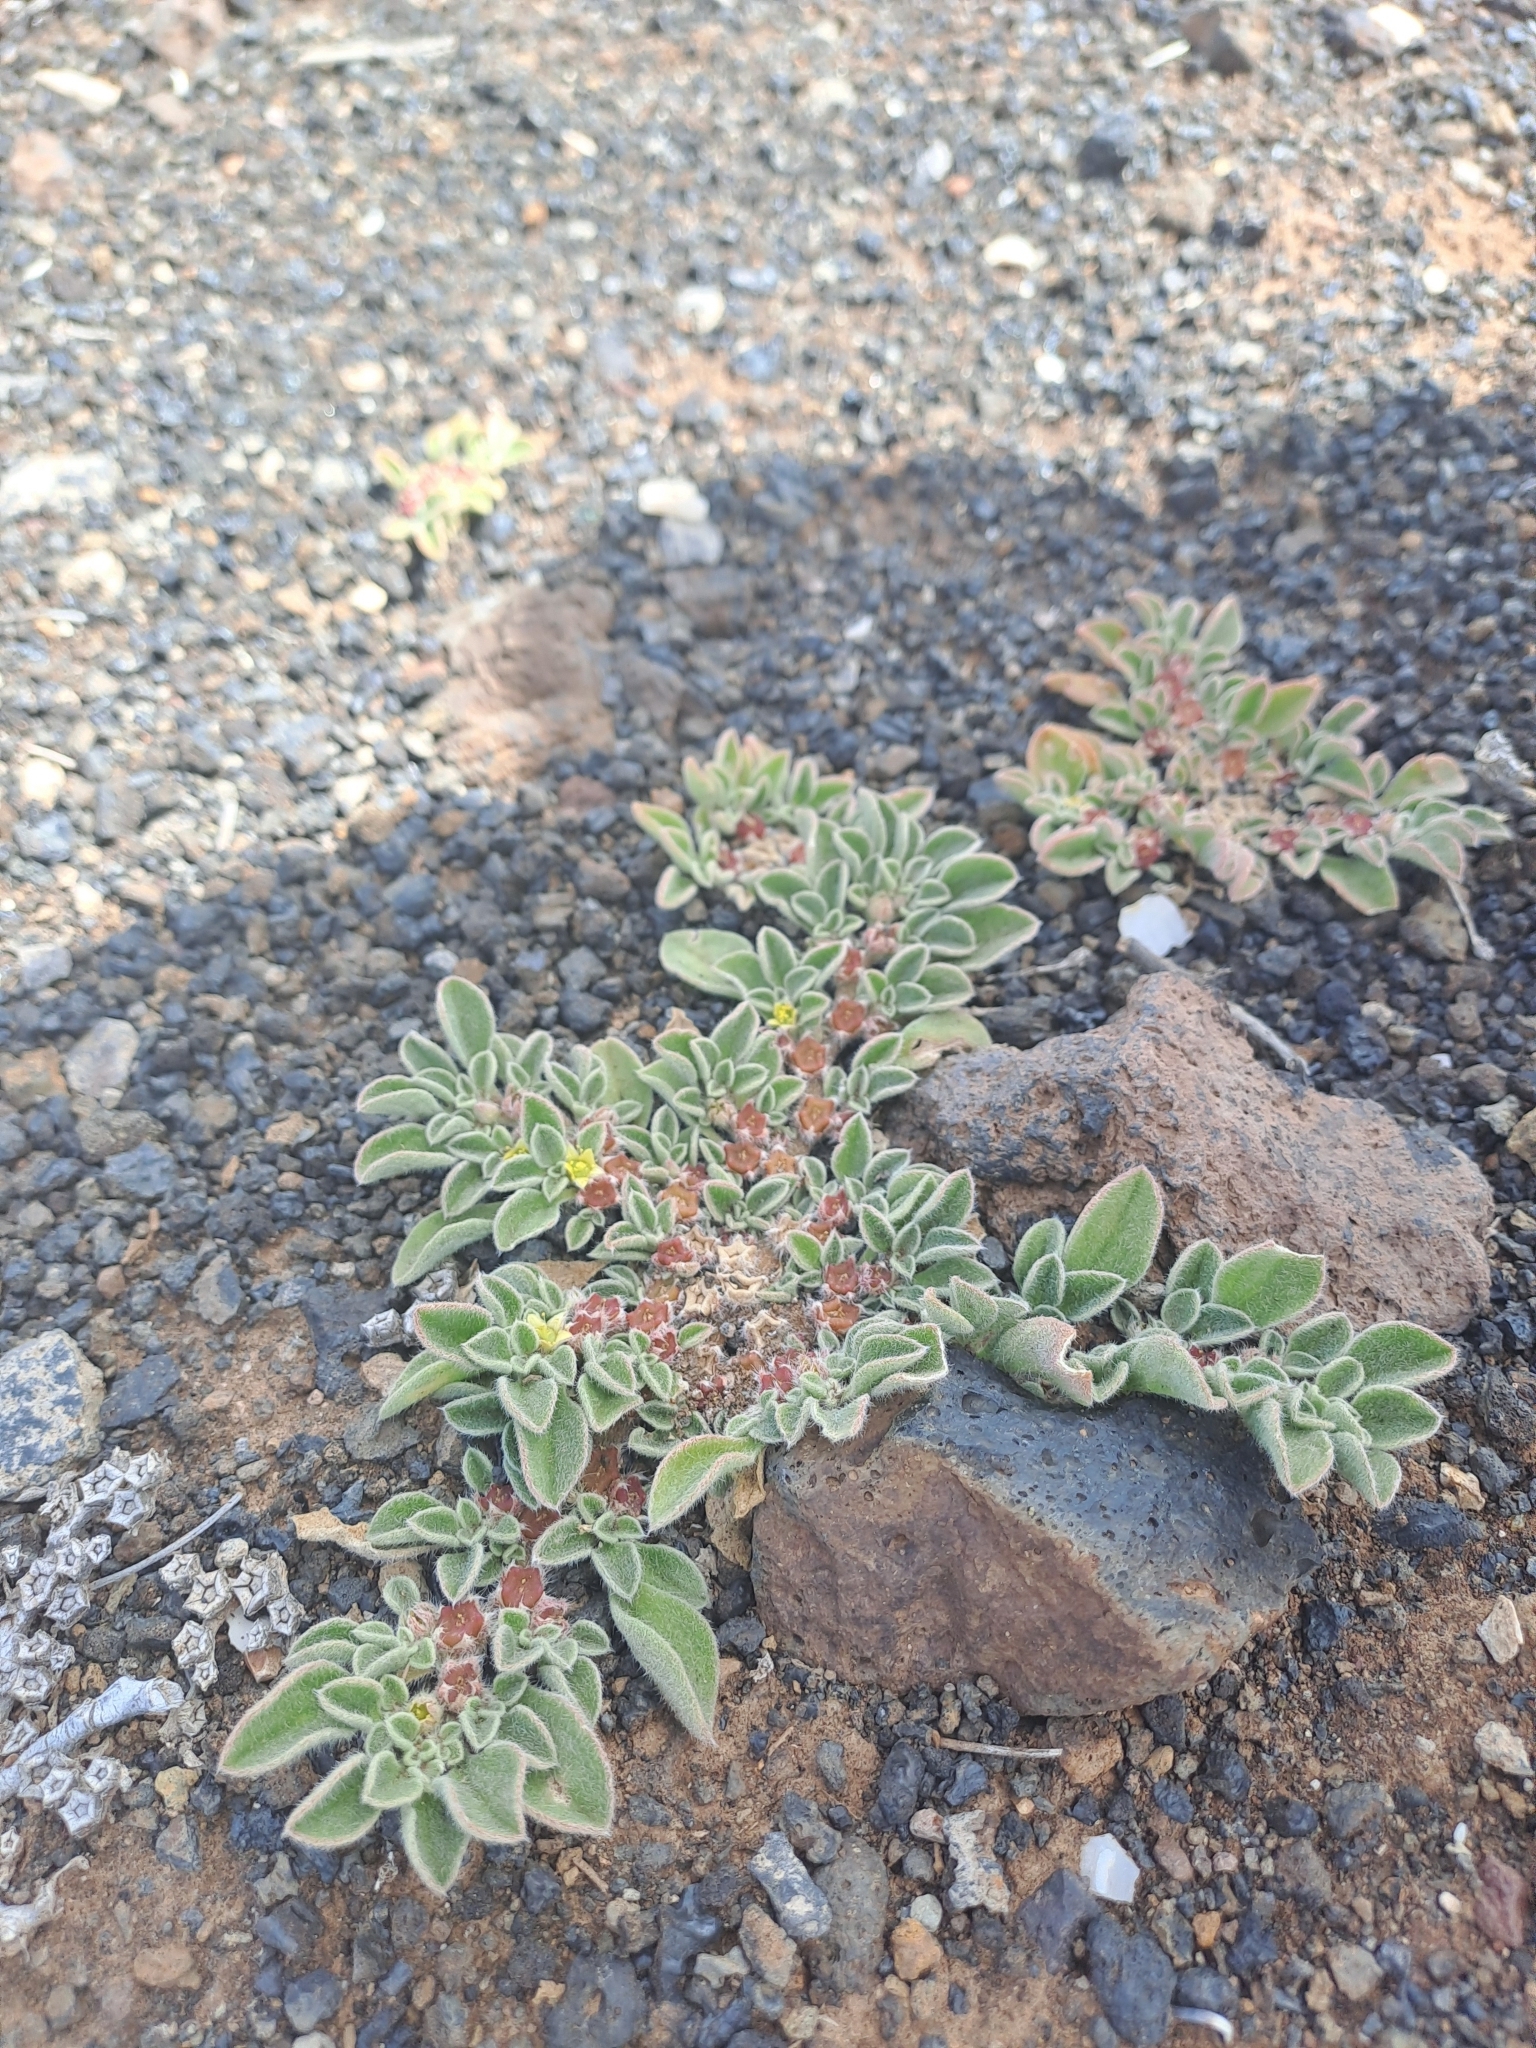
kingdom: Plantae
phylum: Tracheophyta
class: Magnoliopsida
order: Caryophyllales
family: Aizoaceae
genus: Aizoon
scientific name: Aizoon canariense
